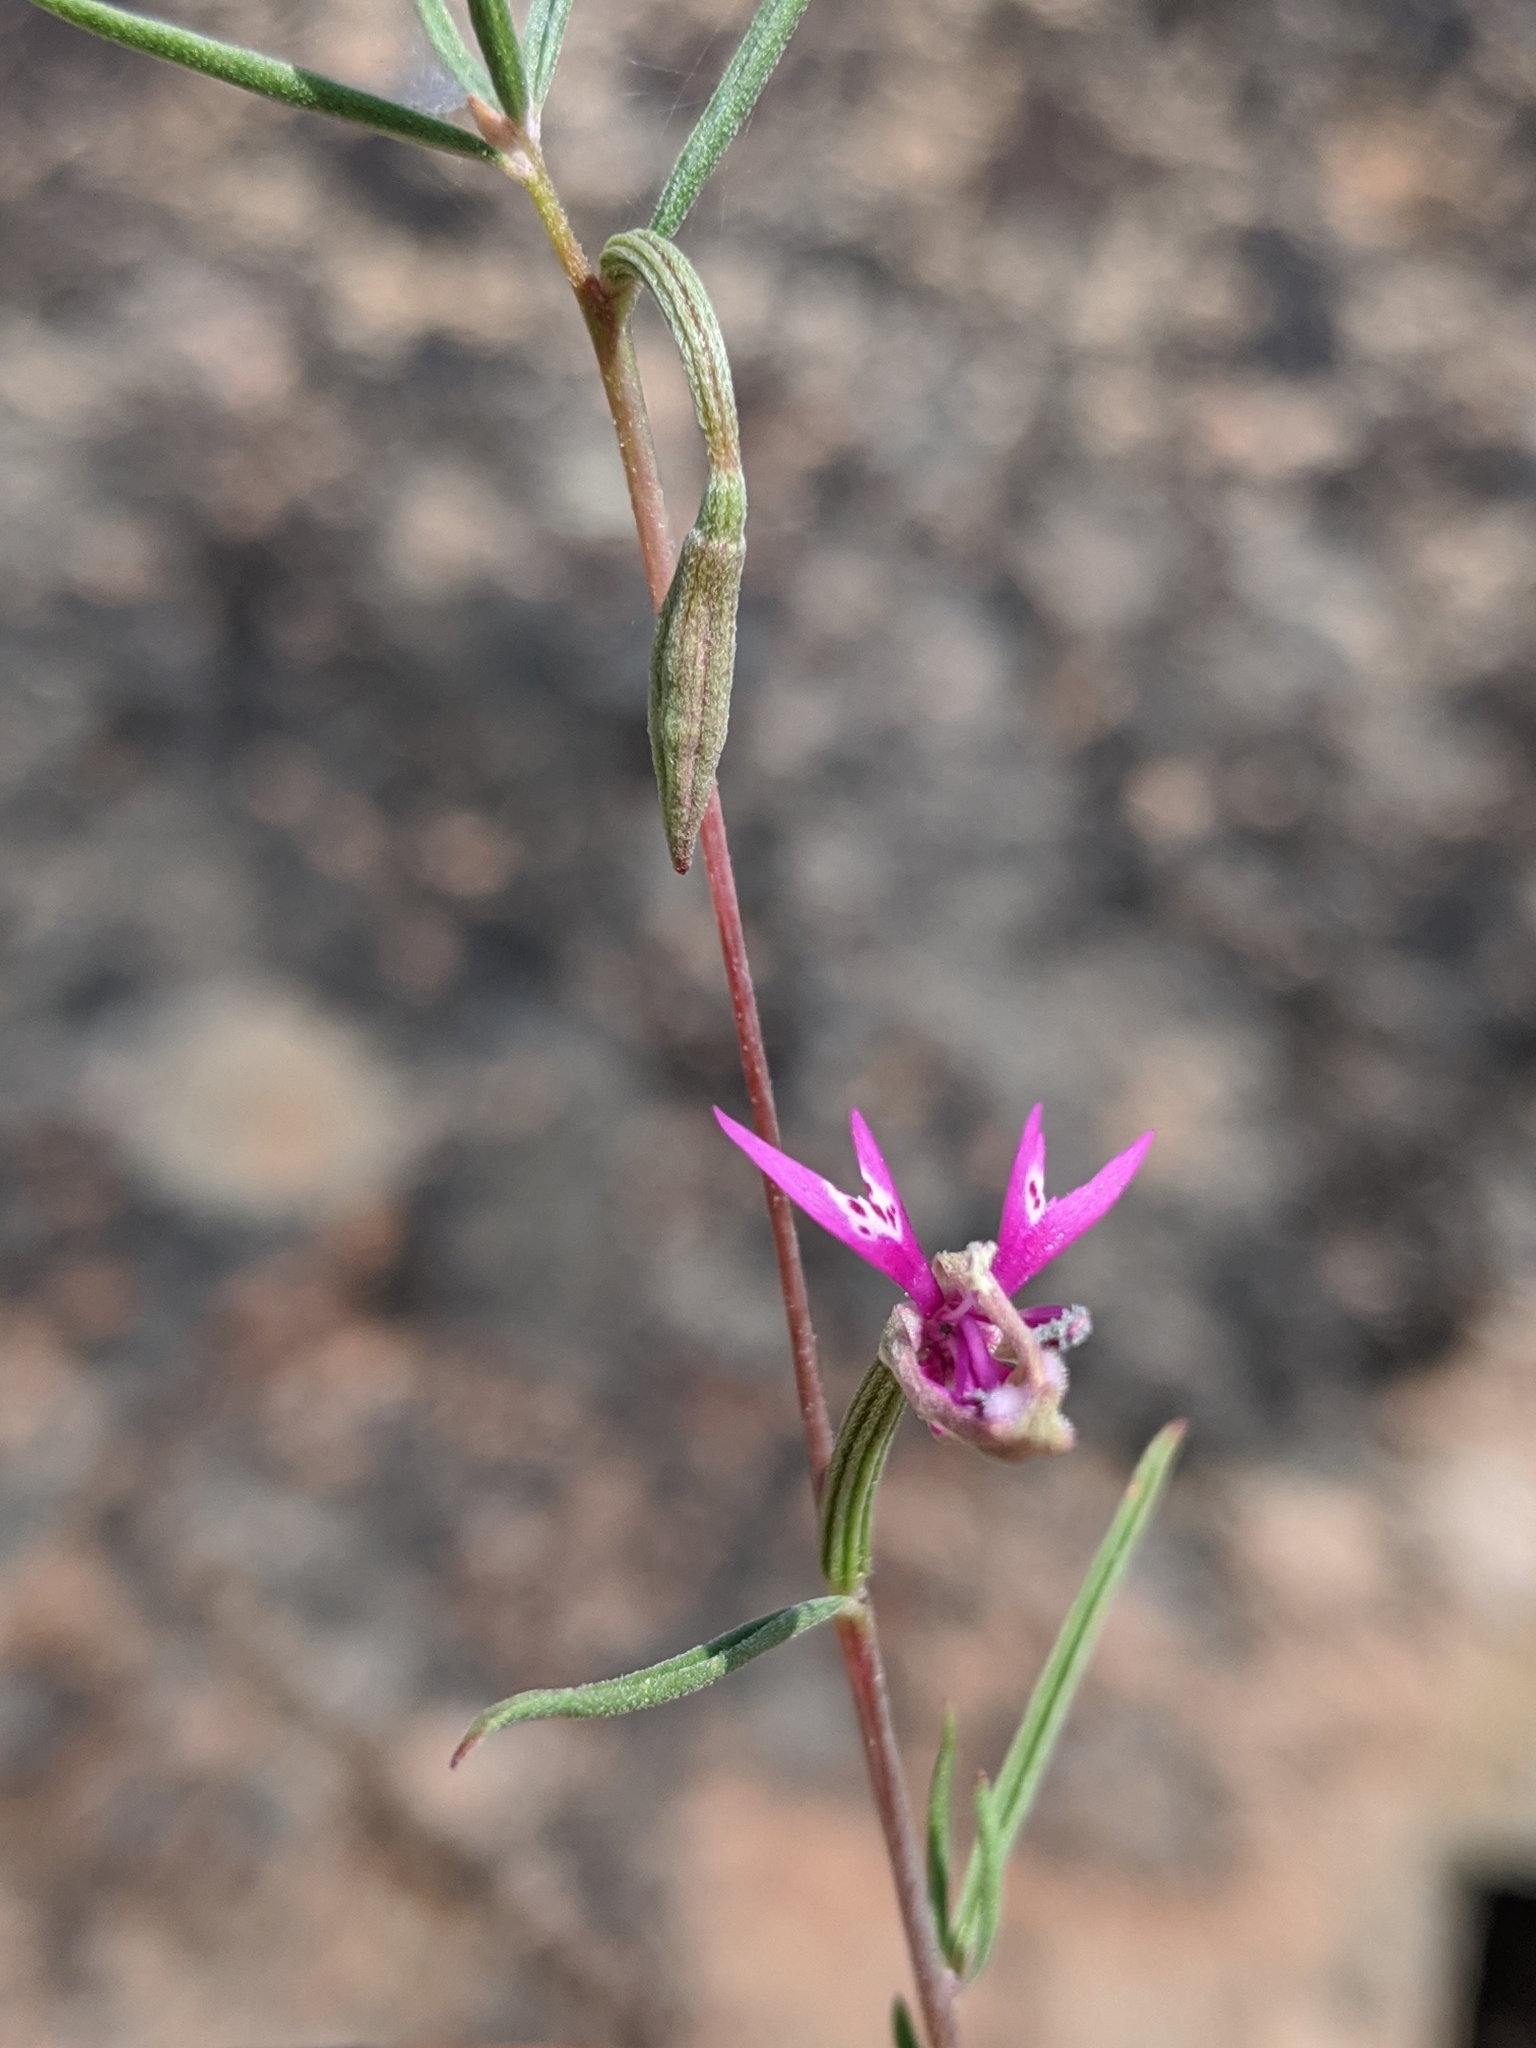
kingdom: Plantae
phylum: Tracheophyta
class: Magnoliopsida
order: Myrtales
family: Onagraceae
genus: Clarkia
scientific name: Clarkia xantiana
